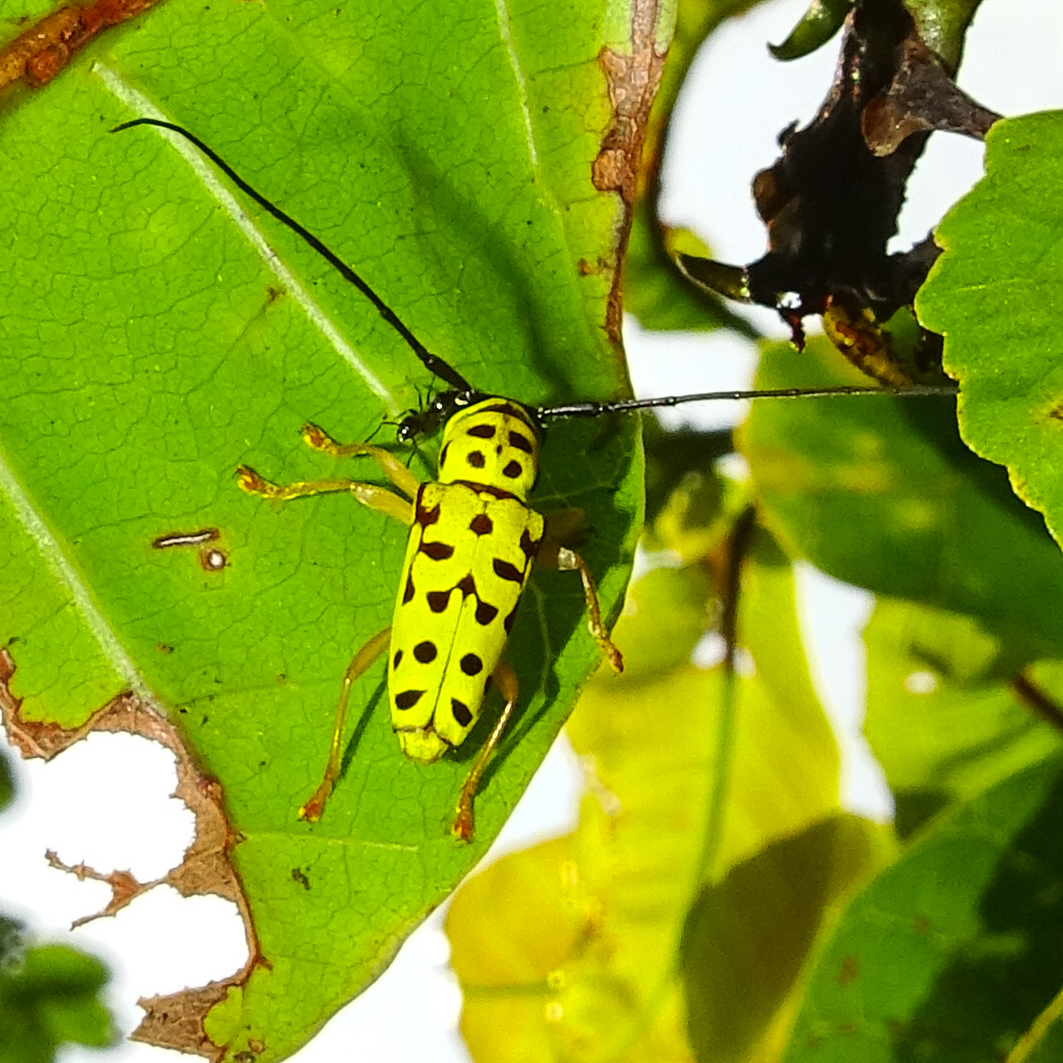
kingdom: Animalia
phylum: Arthropoda
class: Insecta
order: Coleoptera
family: Cerambycidae
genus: Glenea
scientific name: Glenea multiguttata
